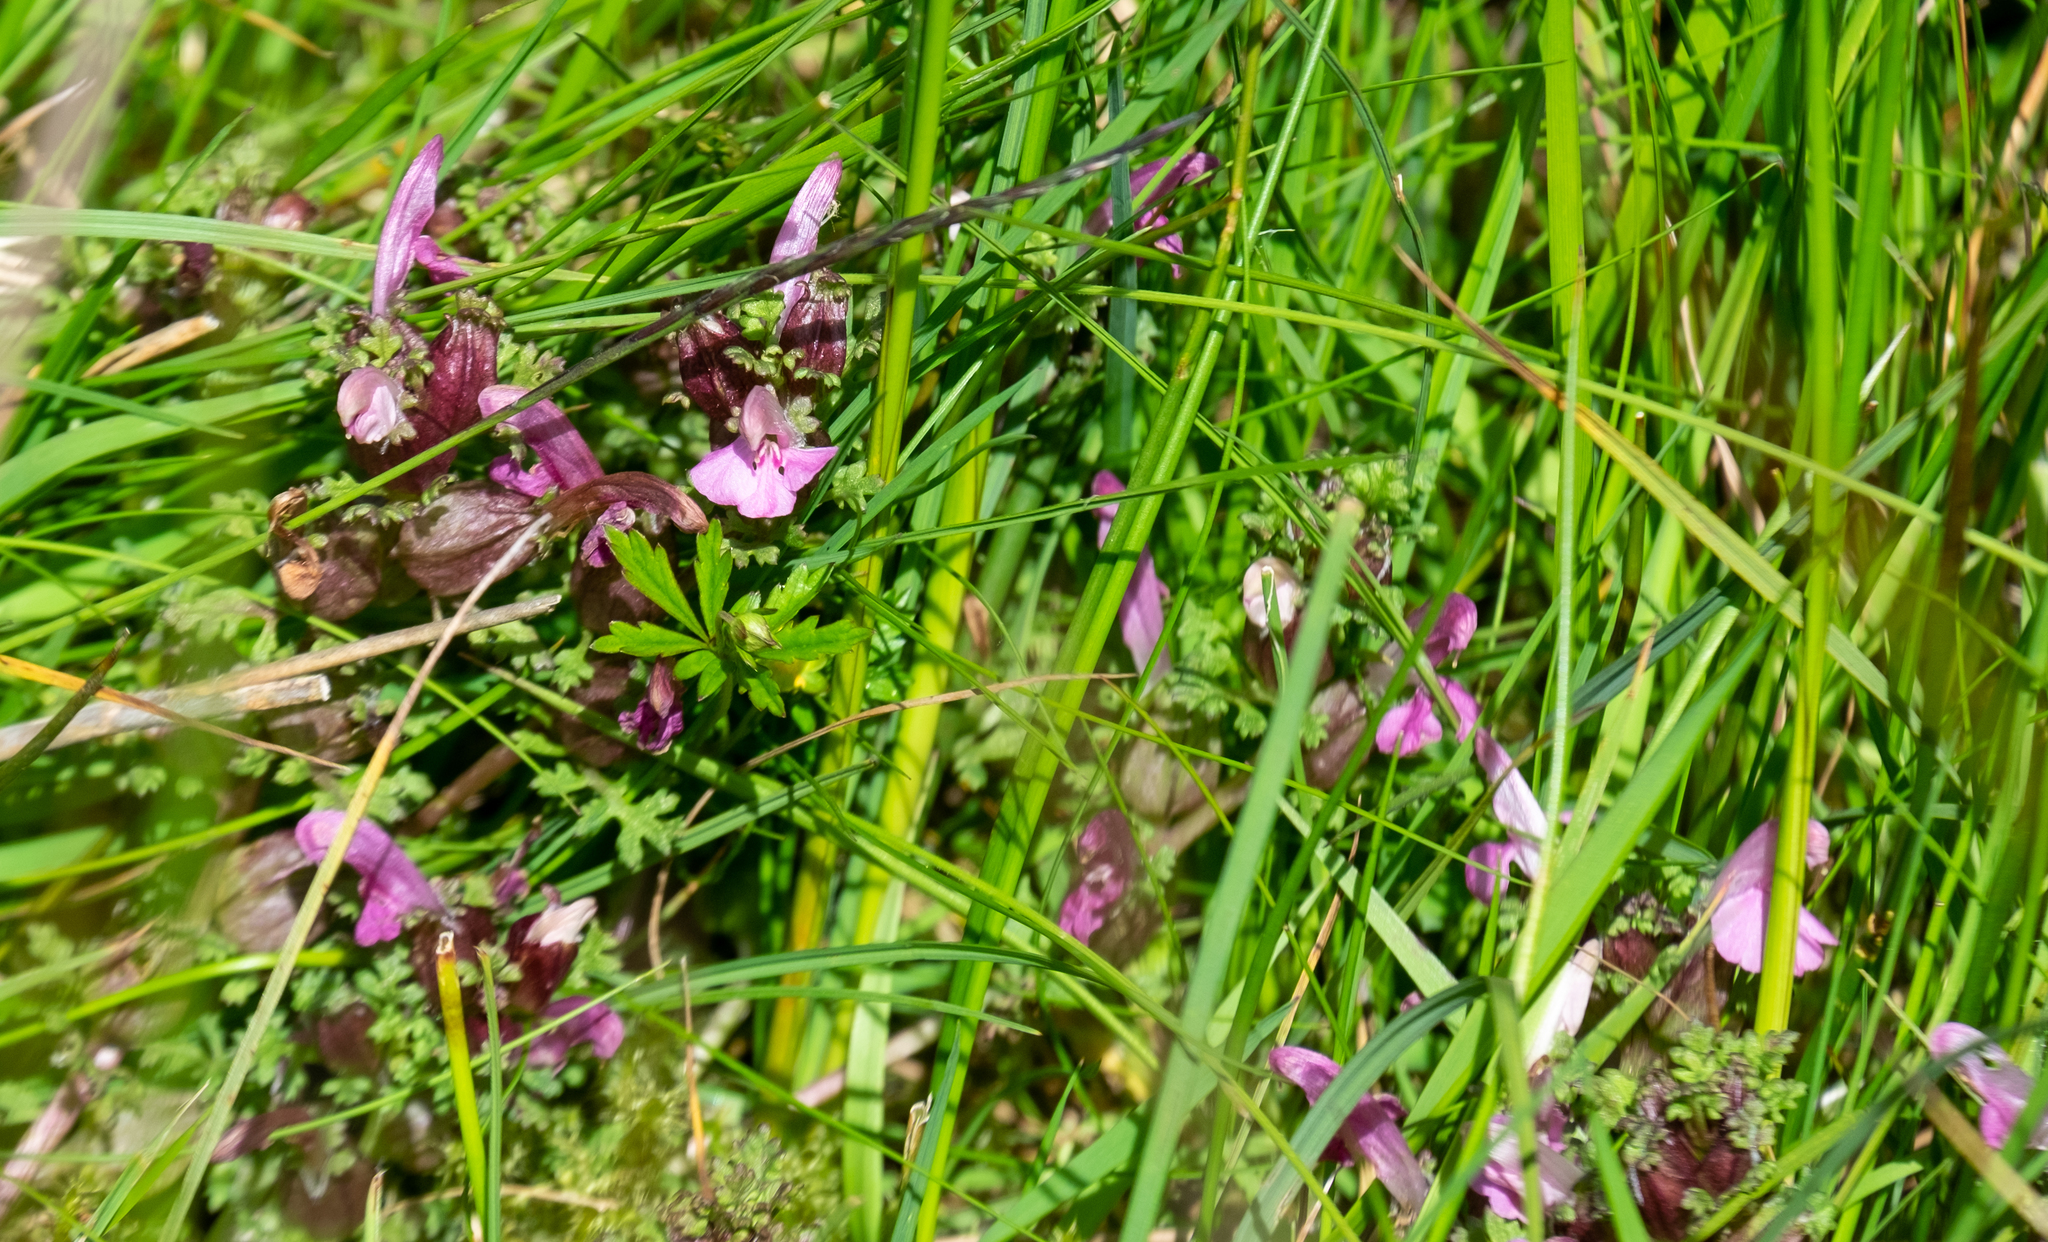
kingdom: Plantae
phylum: Tracheophyta
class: Magnoliopsida
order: Lamiales
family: Orobanchaceae
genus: Pedicularis
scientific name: Pedicularis sylvatica
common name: Lousewort
